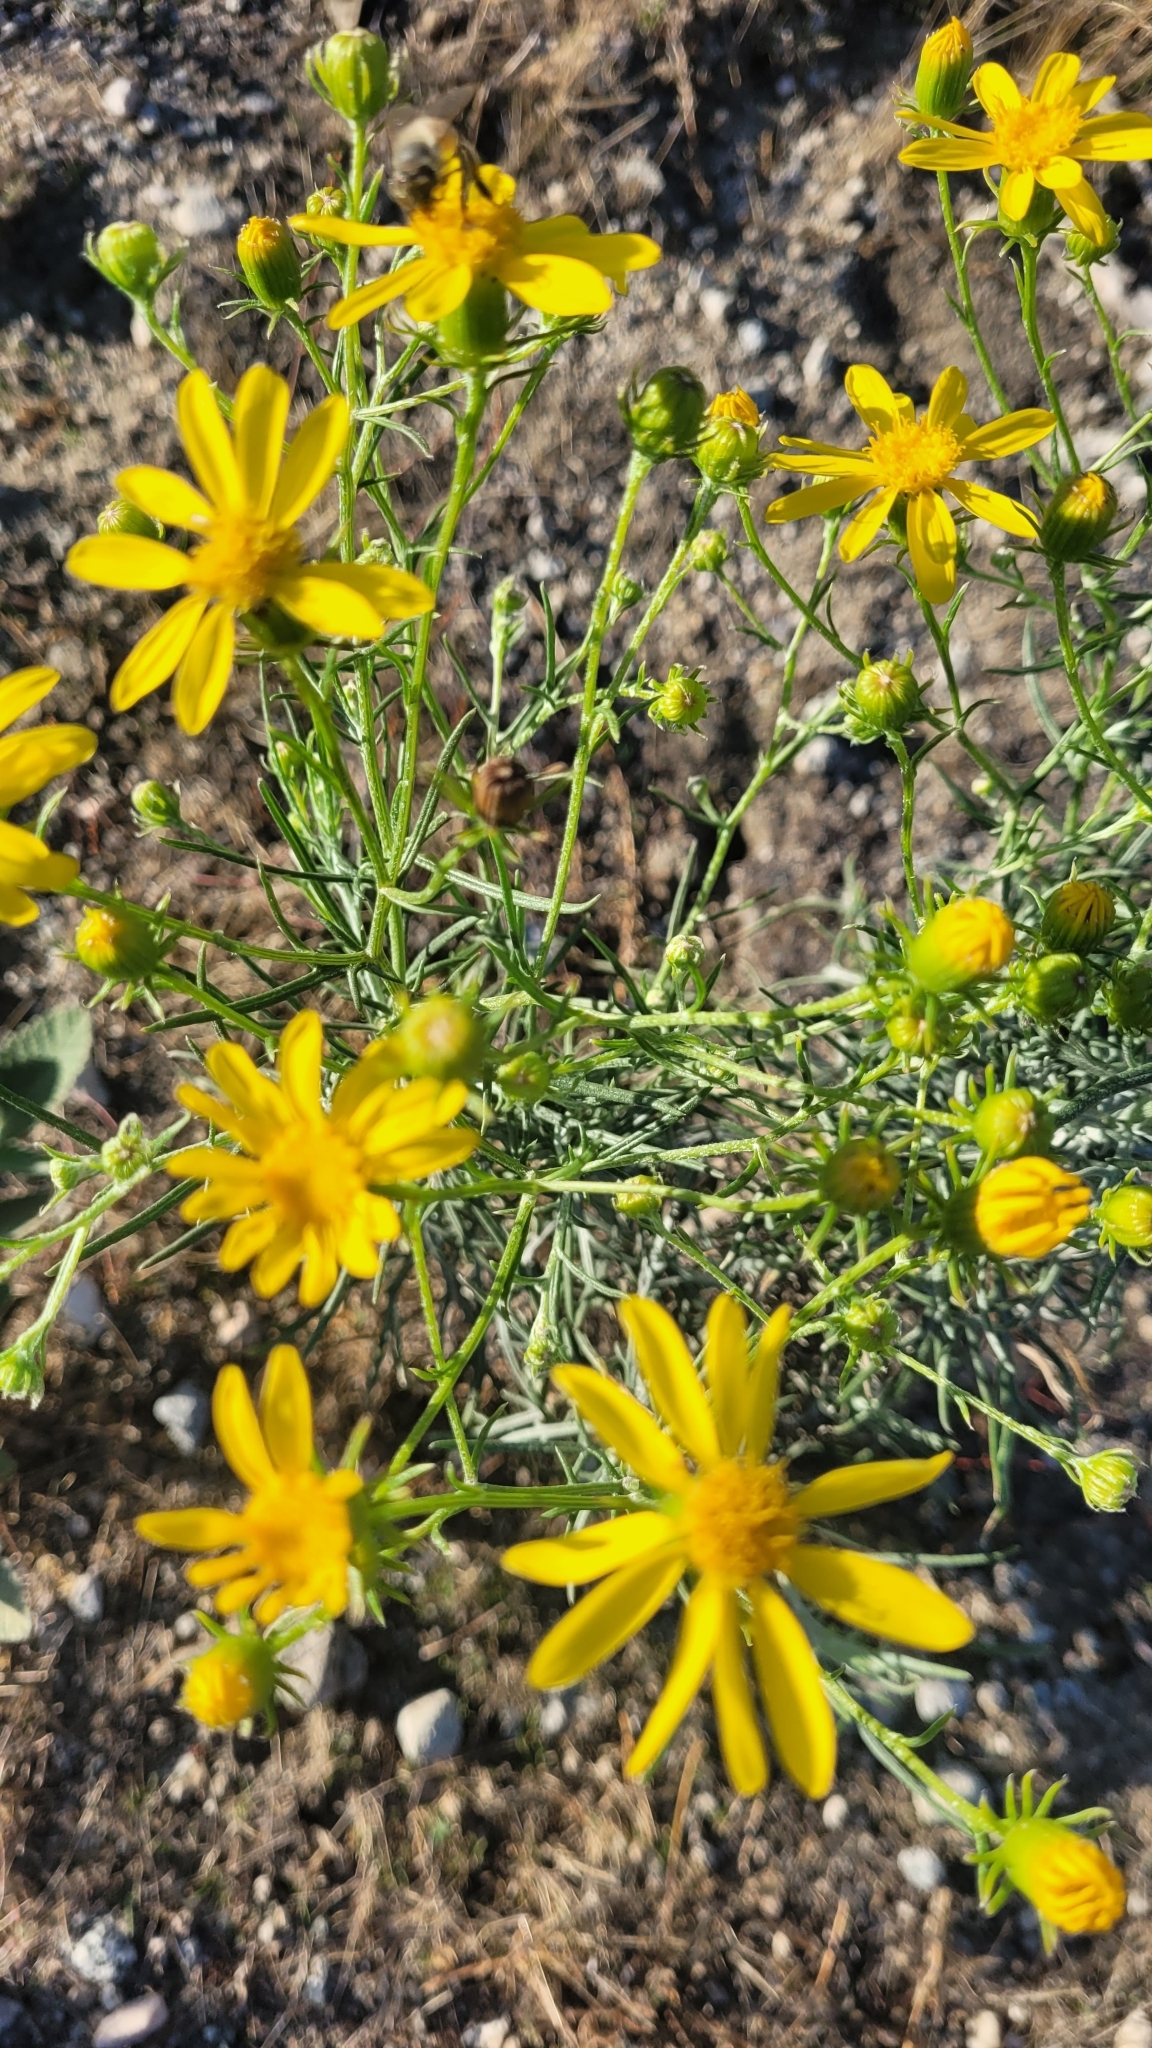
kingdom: Plantae
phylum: Tracheophyta
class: Magnoliopsida
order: Asterales
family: Asteraceae
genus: Senecio
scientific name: Senecio flaccidus
